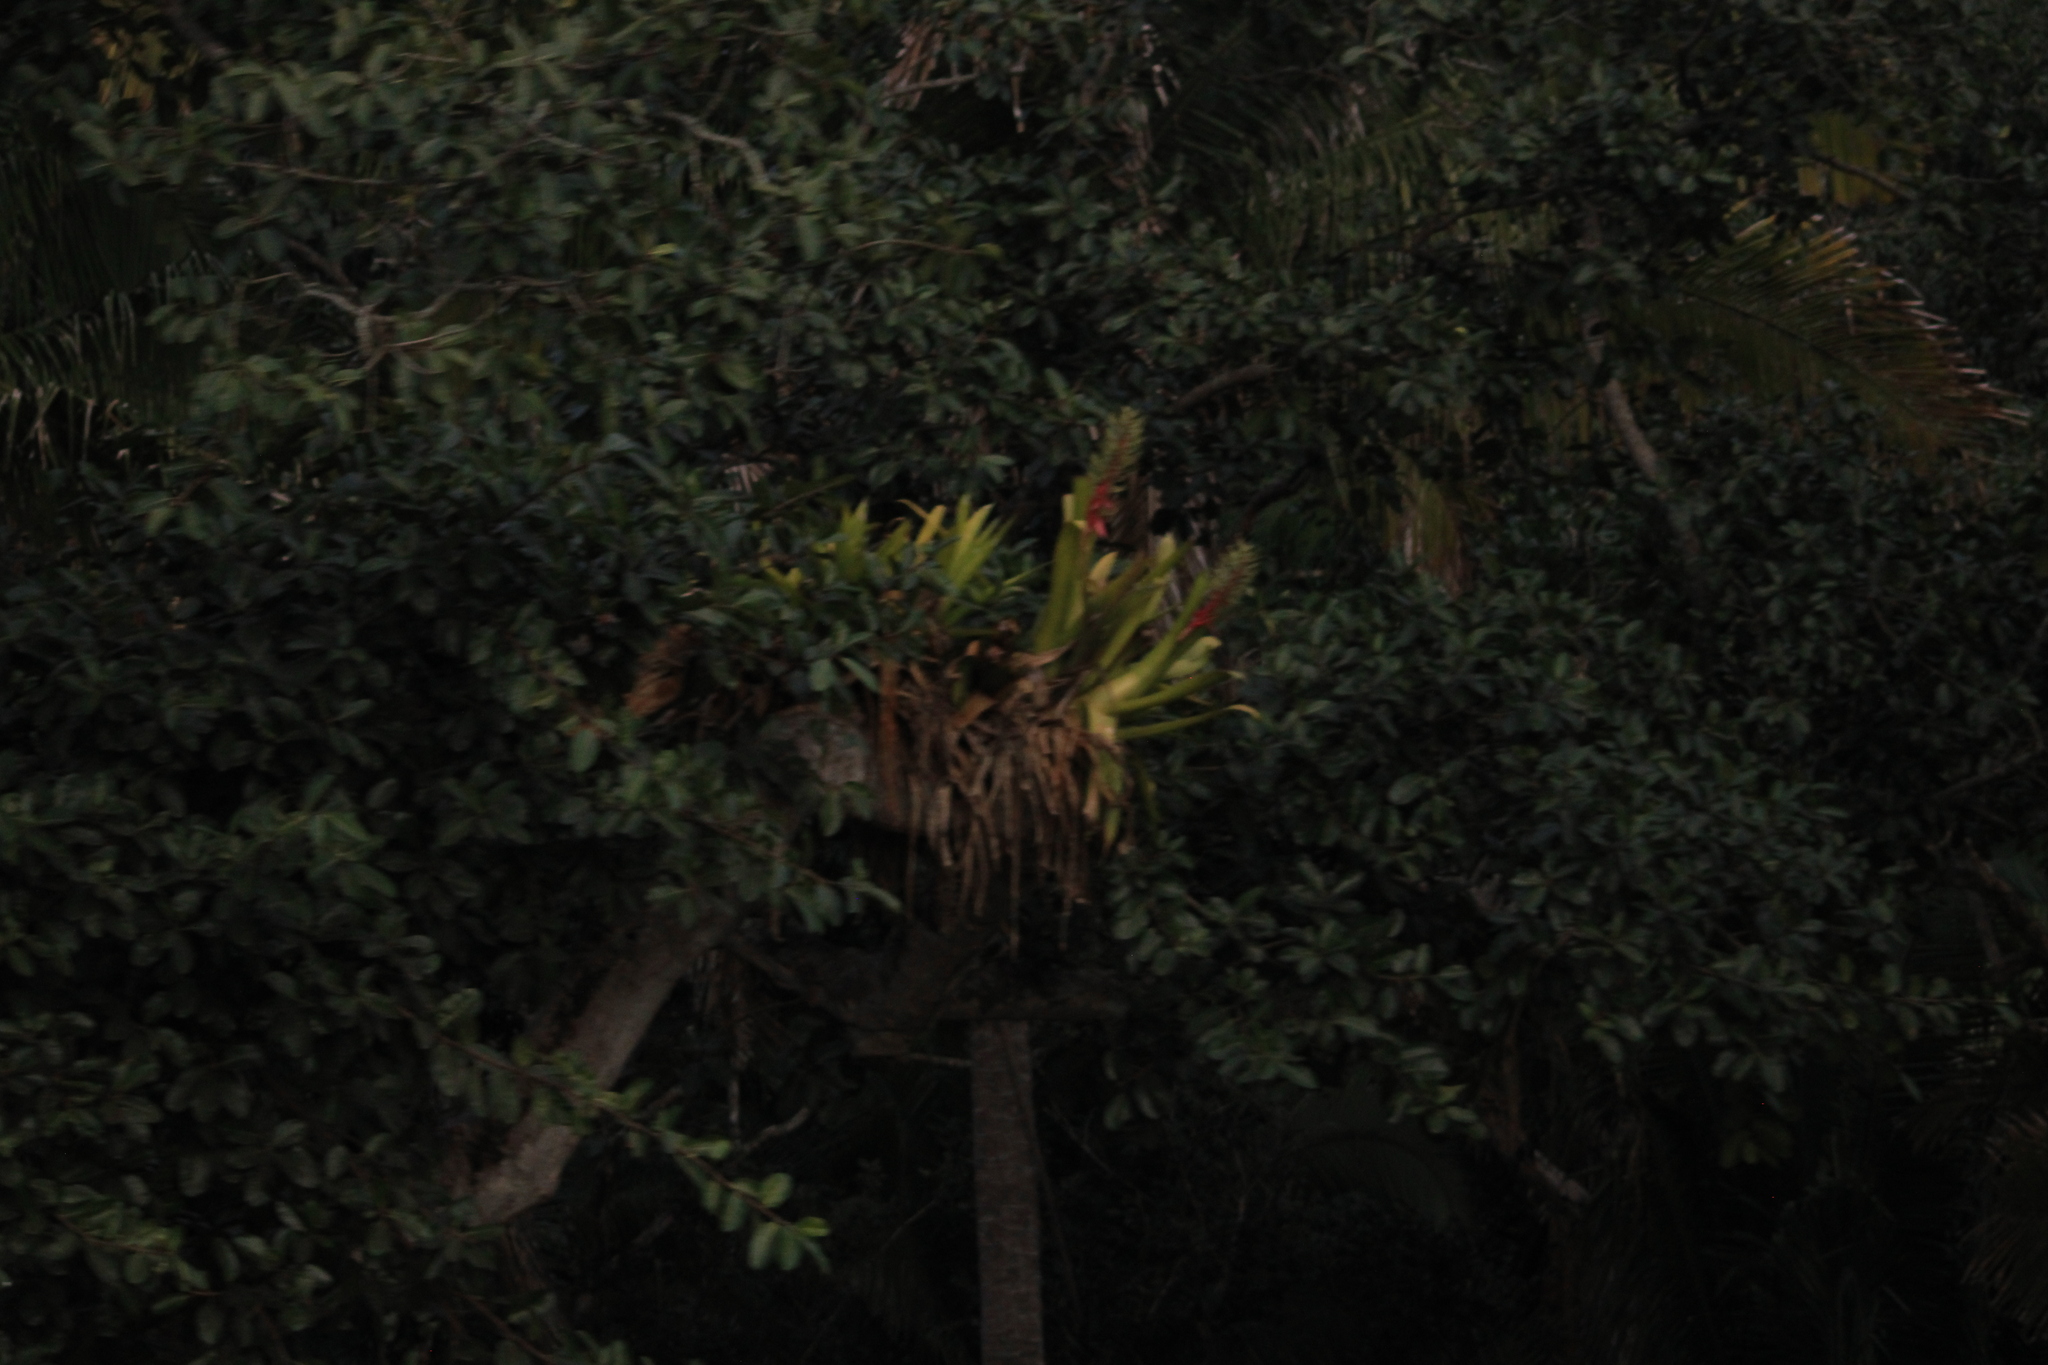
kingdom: Plantae
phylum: Tracheophyta
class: Liliopsida
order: Poales
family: Bromeliaceae
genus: Aechmea
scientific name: Aechmea bracteata
